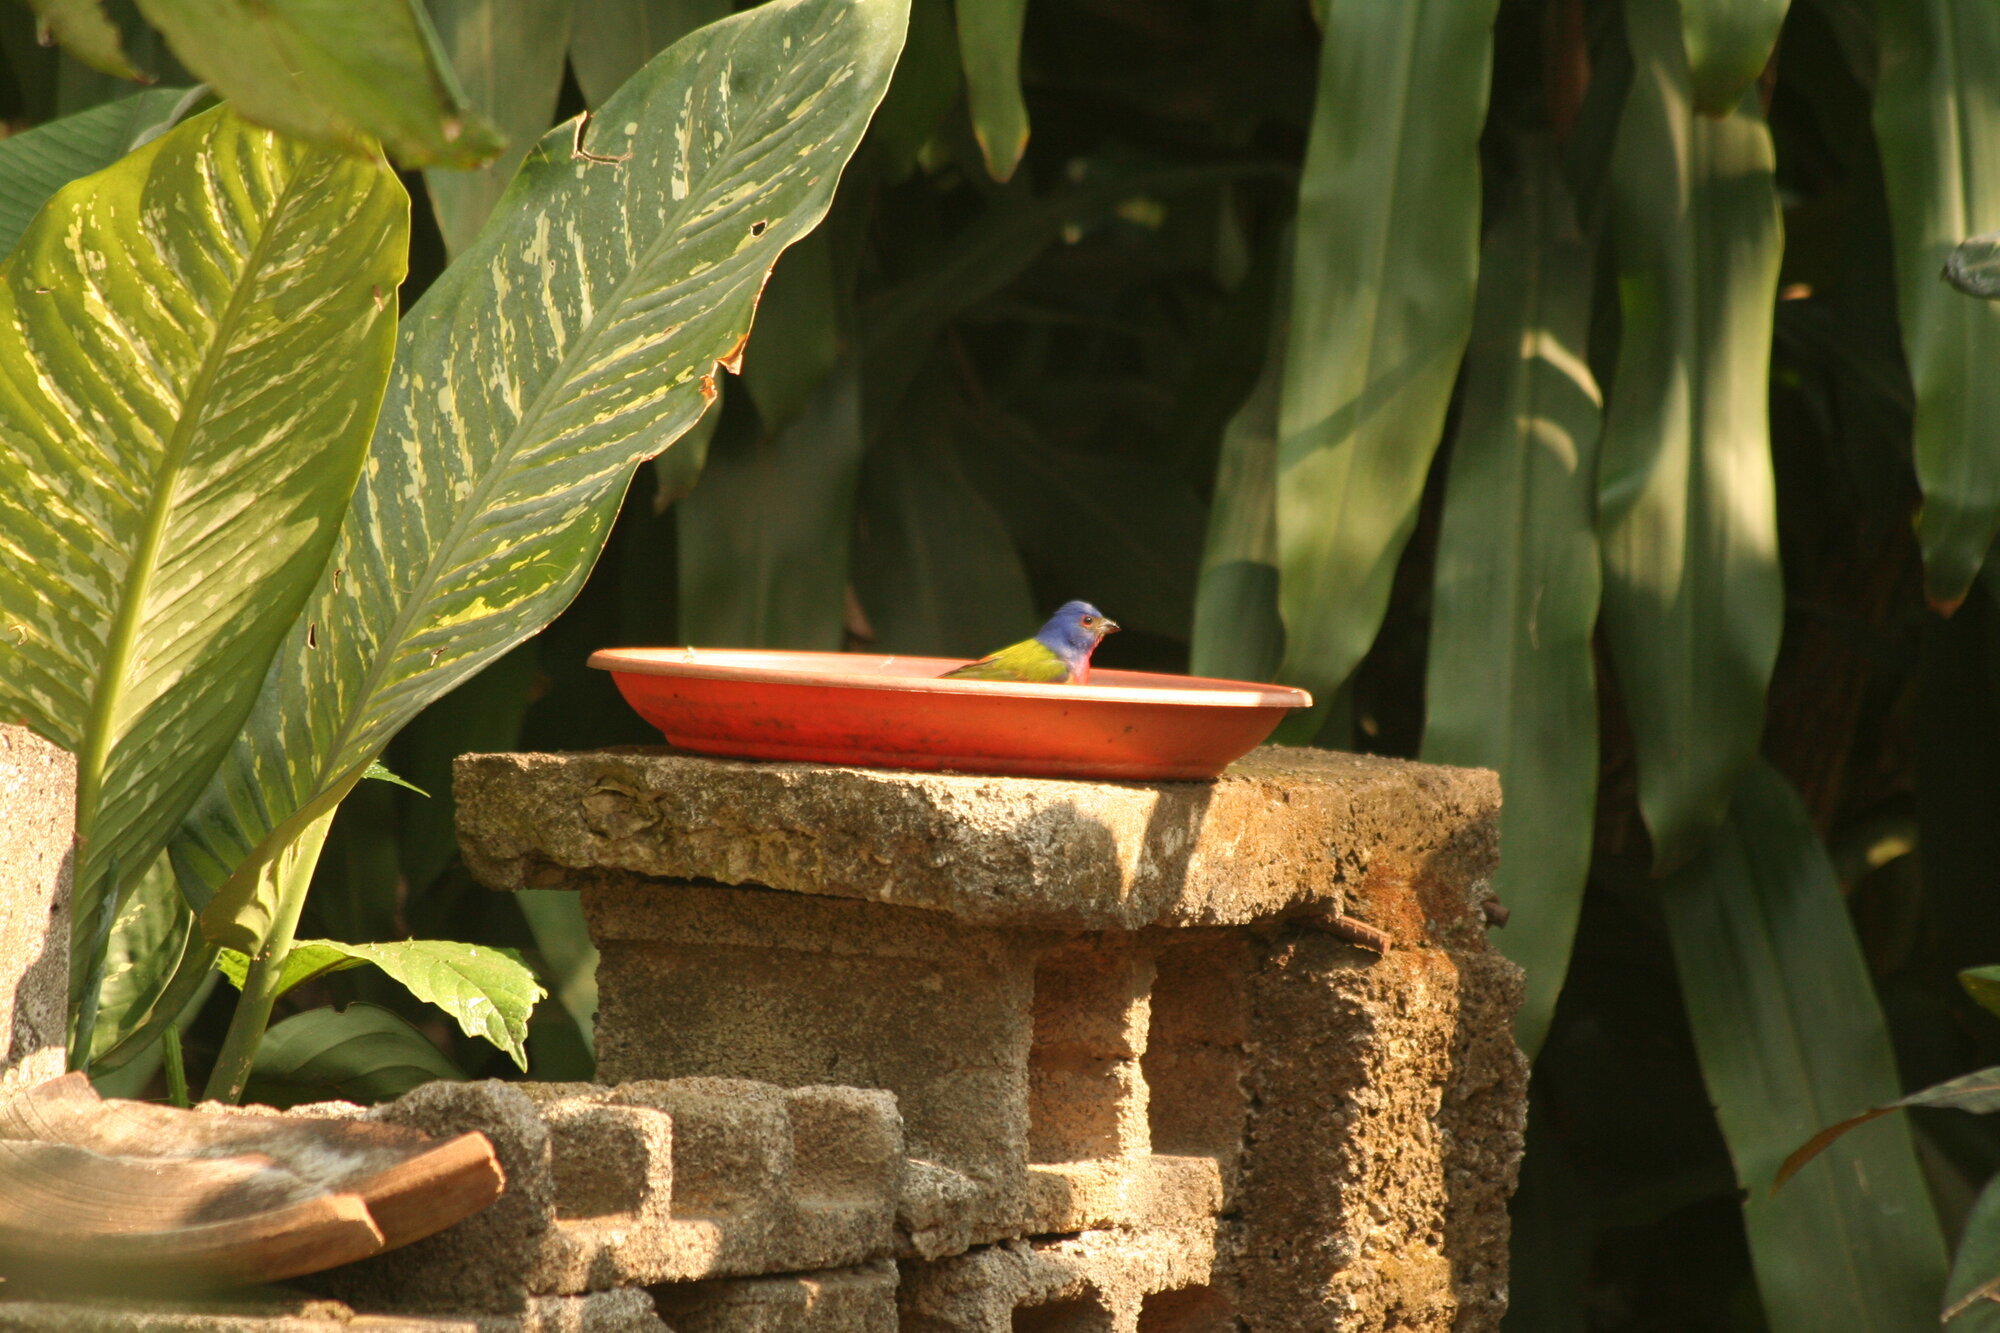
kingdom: Animalia
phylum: Chordata
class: Aves
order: Passeriformes
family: Cardinalidae
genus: Passerina
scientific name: Passerina ciris
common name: Painted bunting
